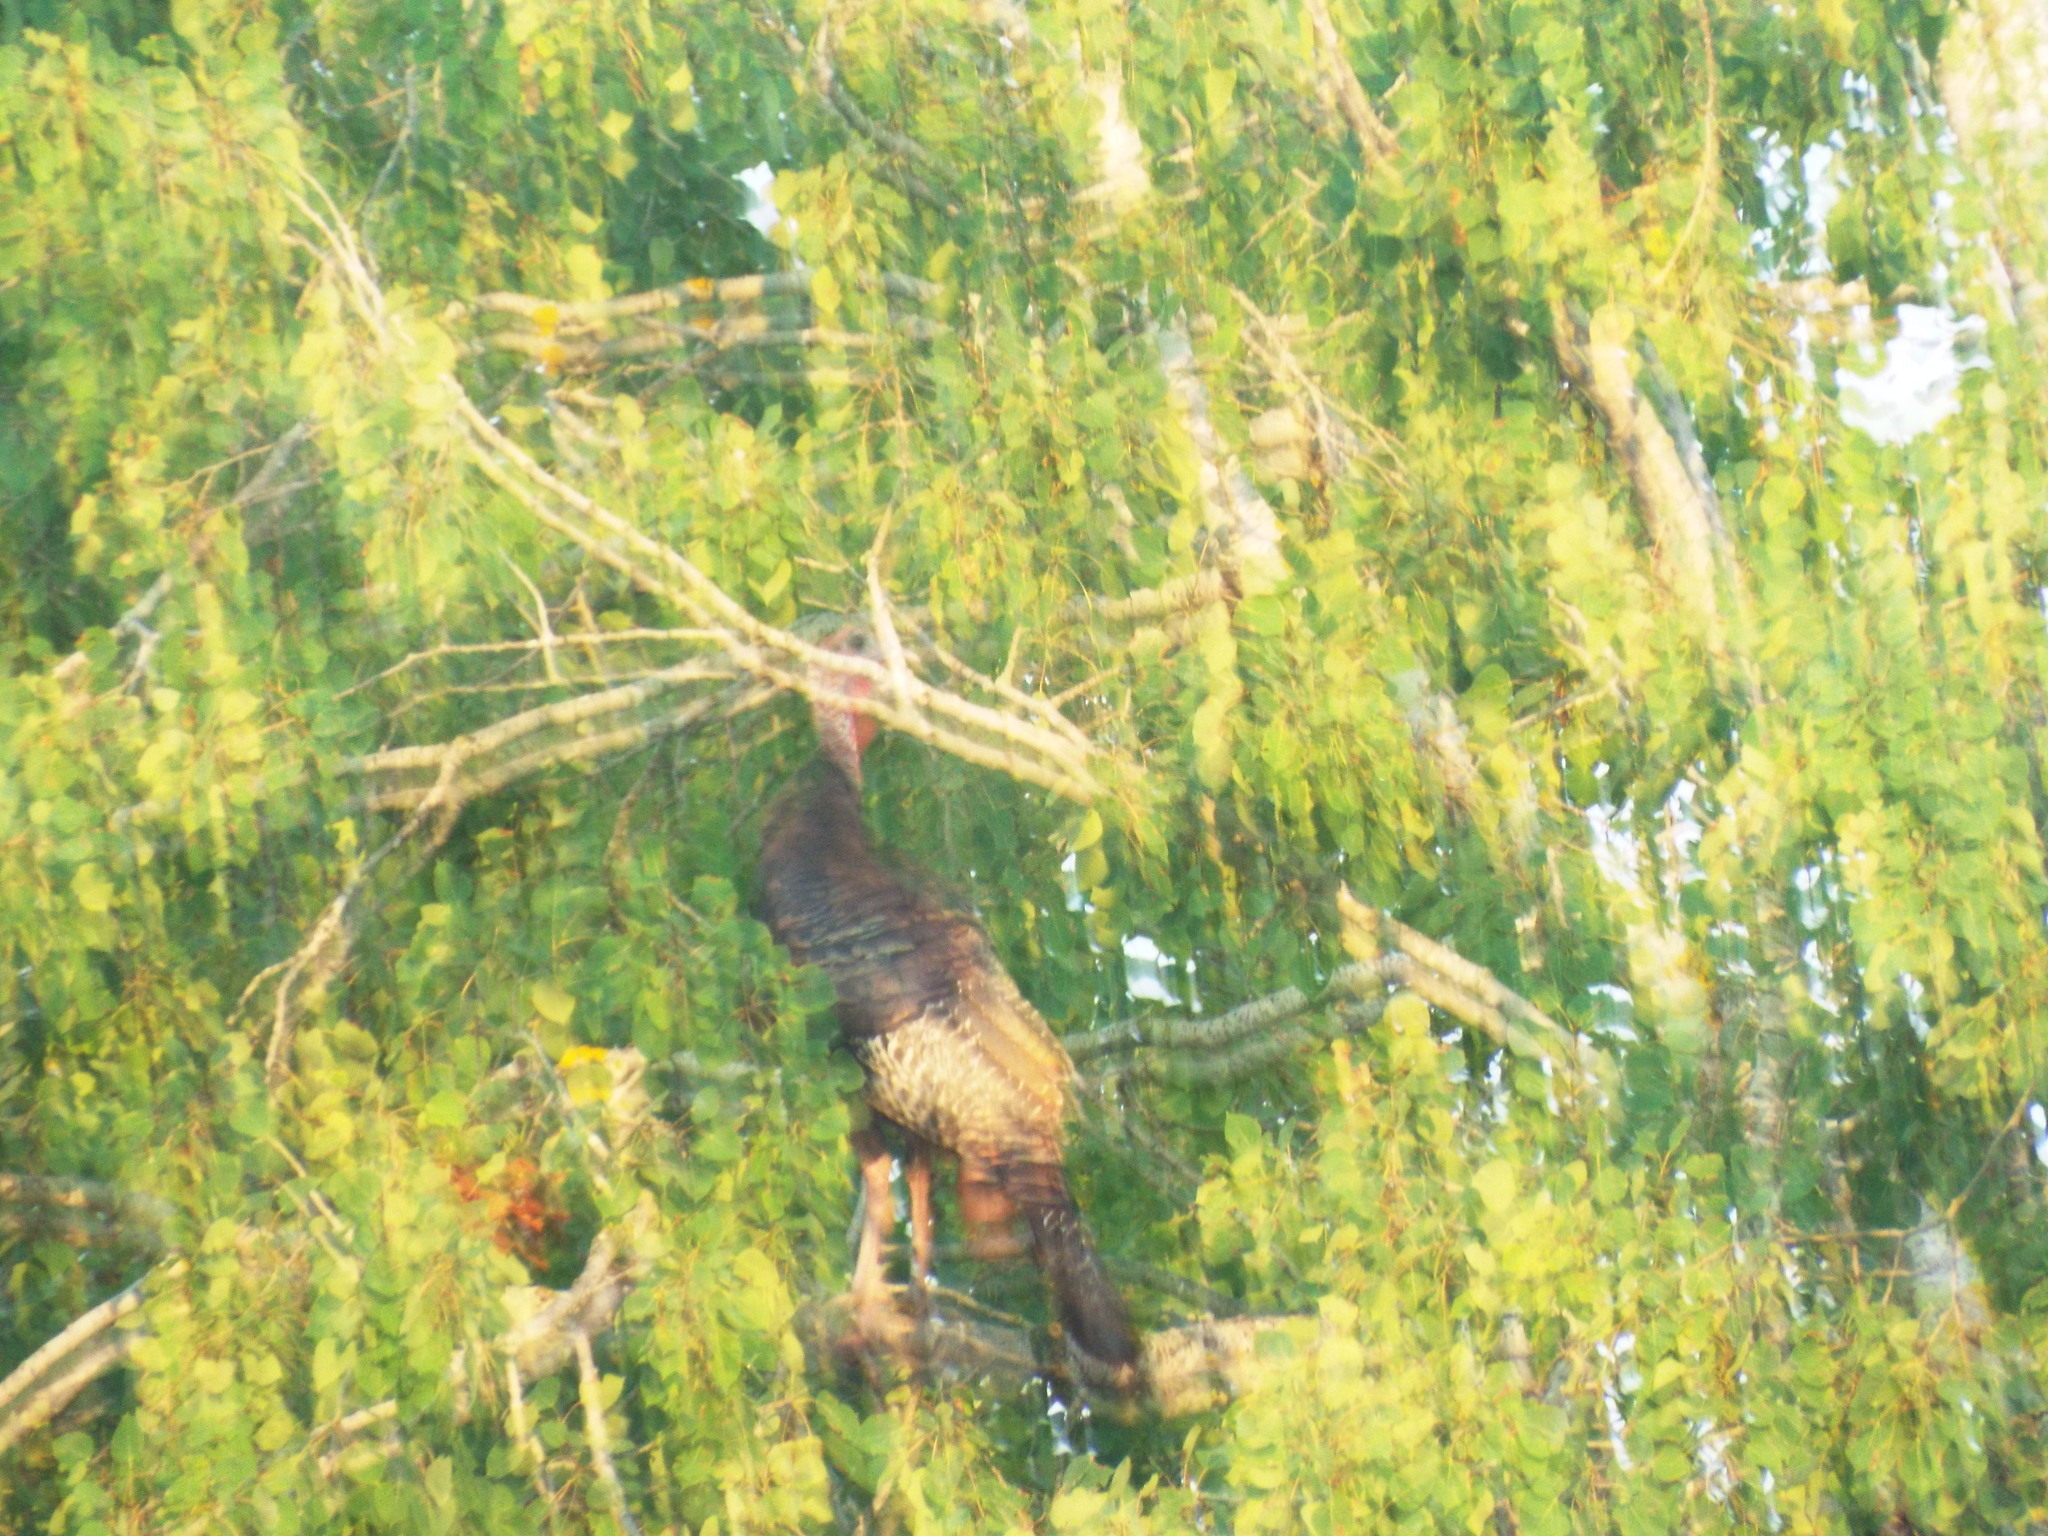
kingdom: Animalia
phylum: Chordata
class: Aves
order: Galliformes
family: Phasianidae
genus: Meleagris
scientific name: Meleagris gallopavo
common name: Wild turkey
